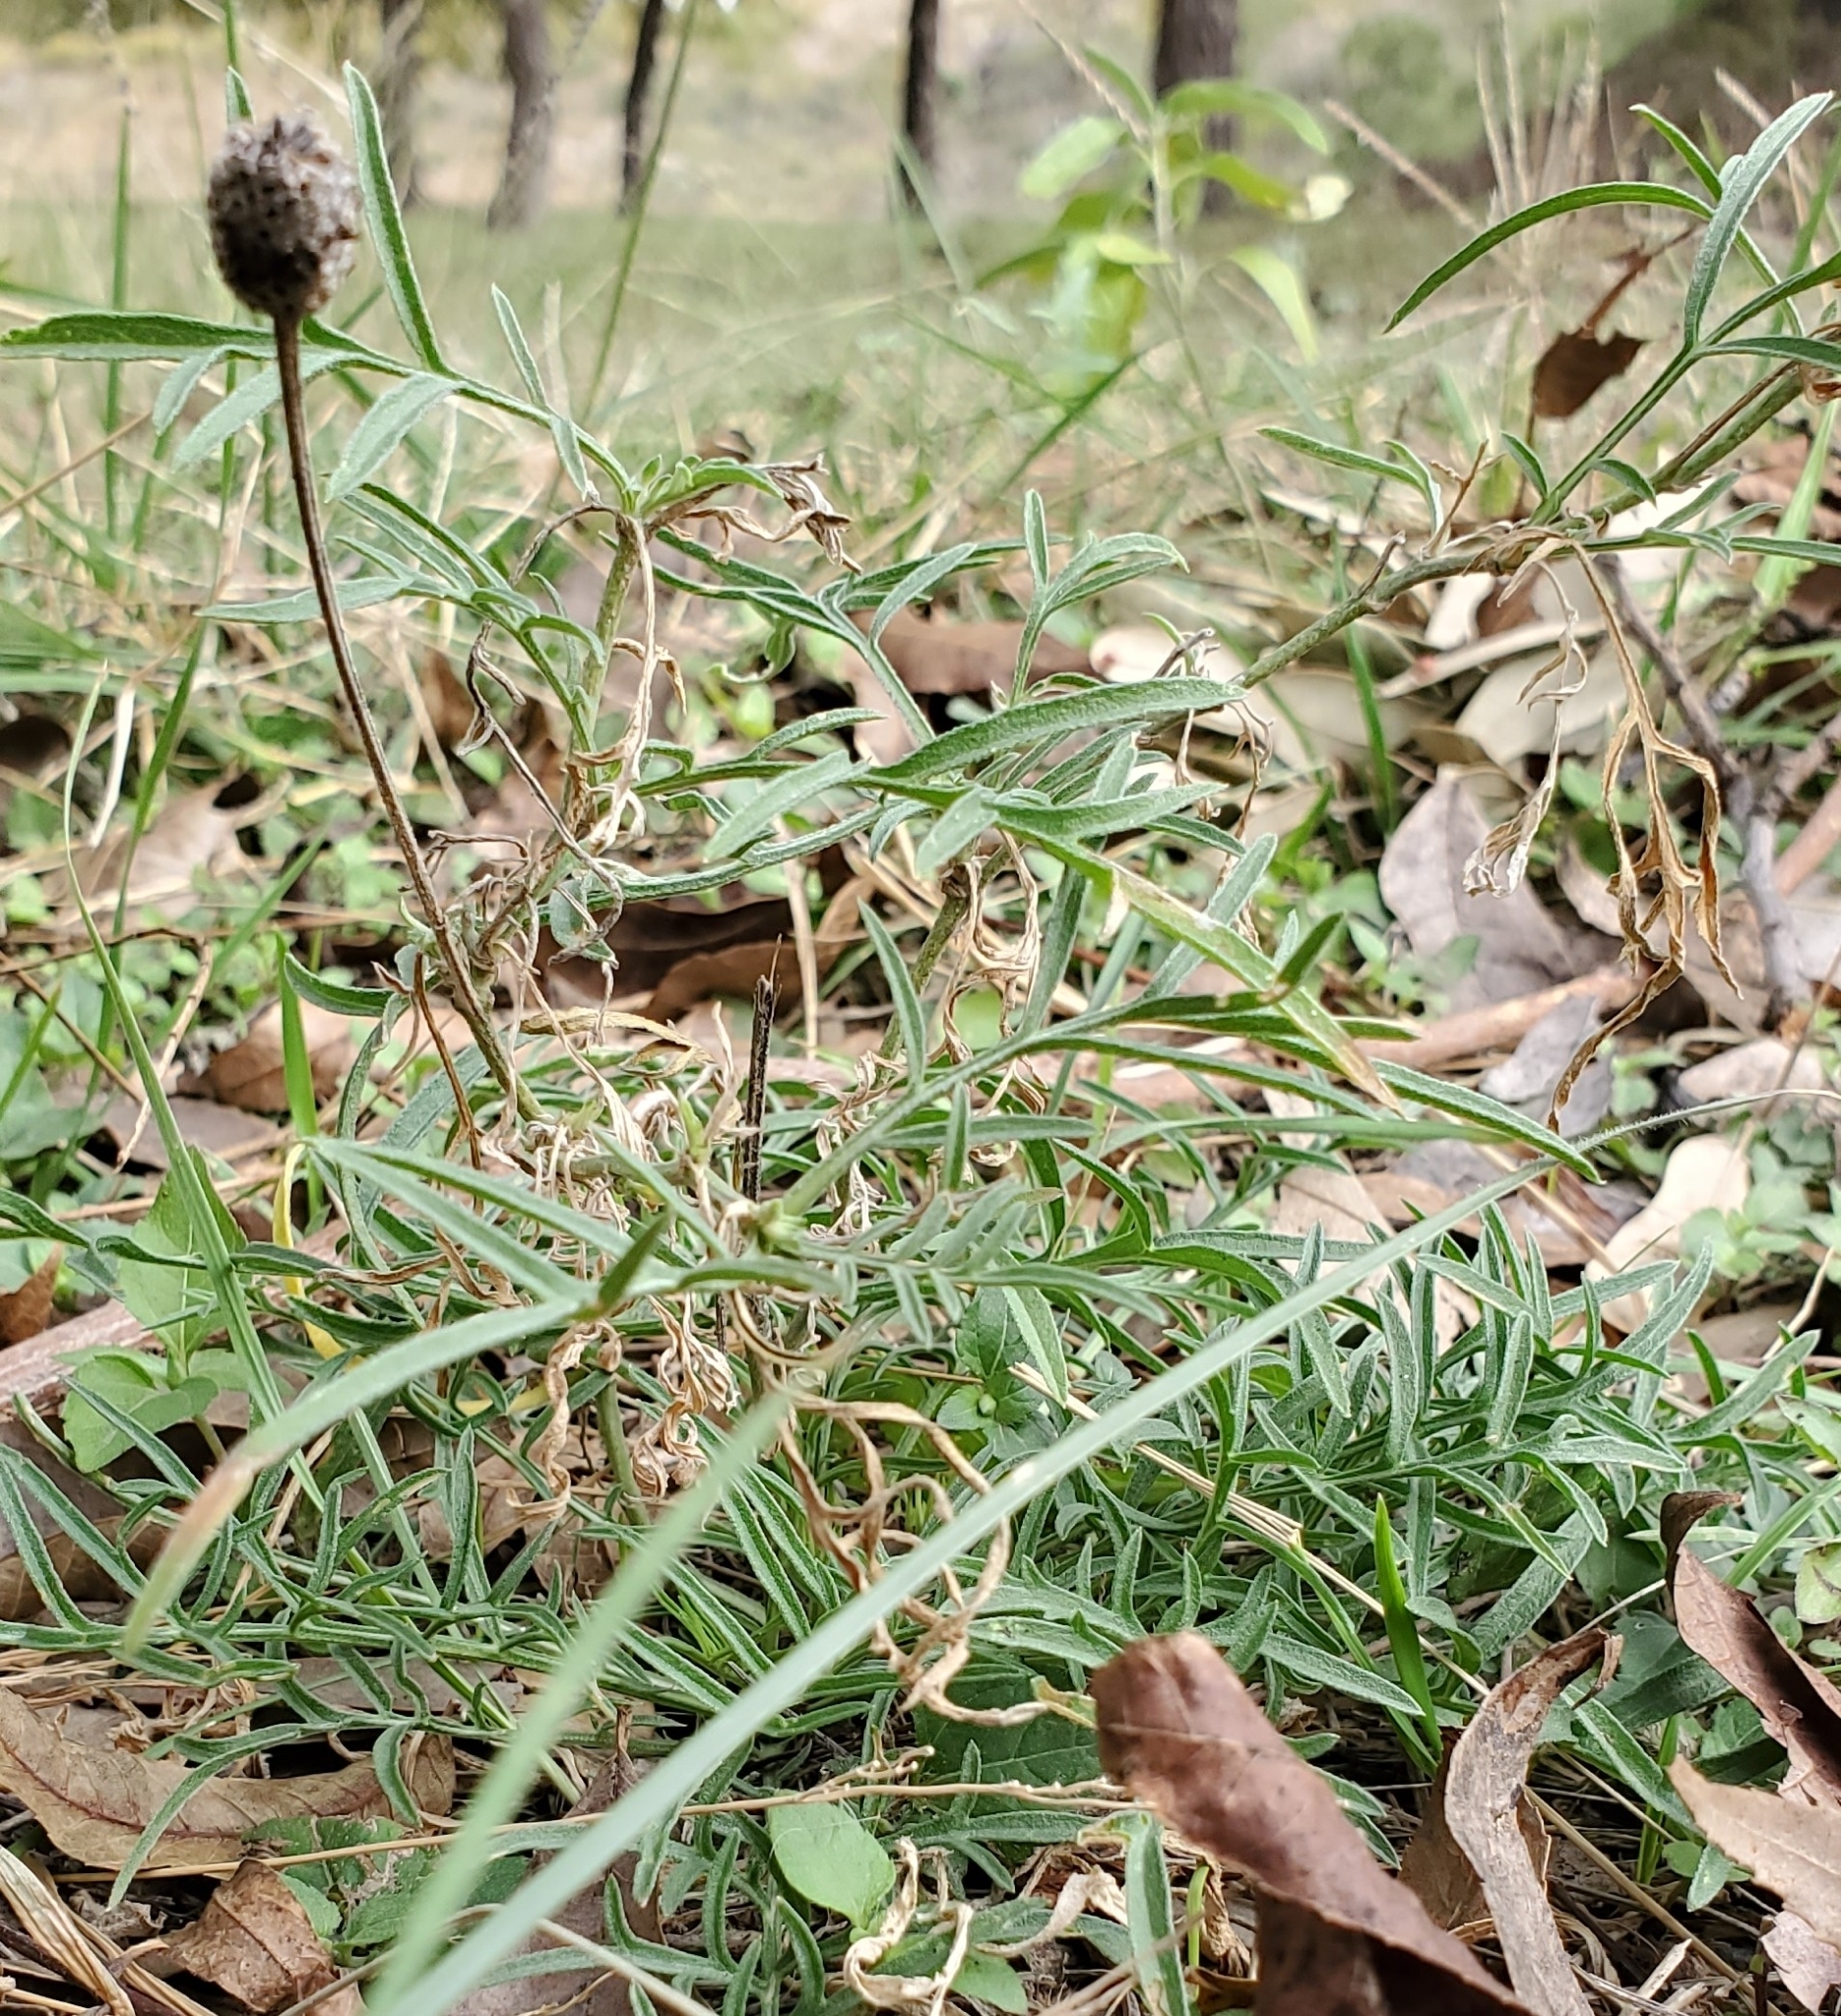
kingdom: Plantae
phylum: Tracheophyta
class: Magnoliopsida
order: Asterales
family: Asteraceae
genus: Ratibida
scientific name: Ratibida columnifera
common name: Prairie coneflower
